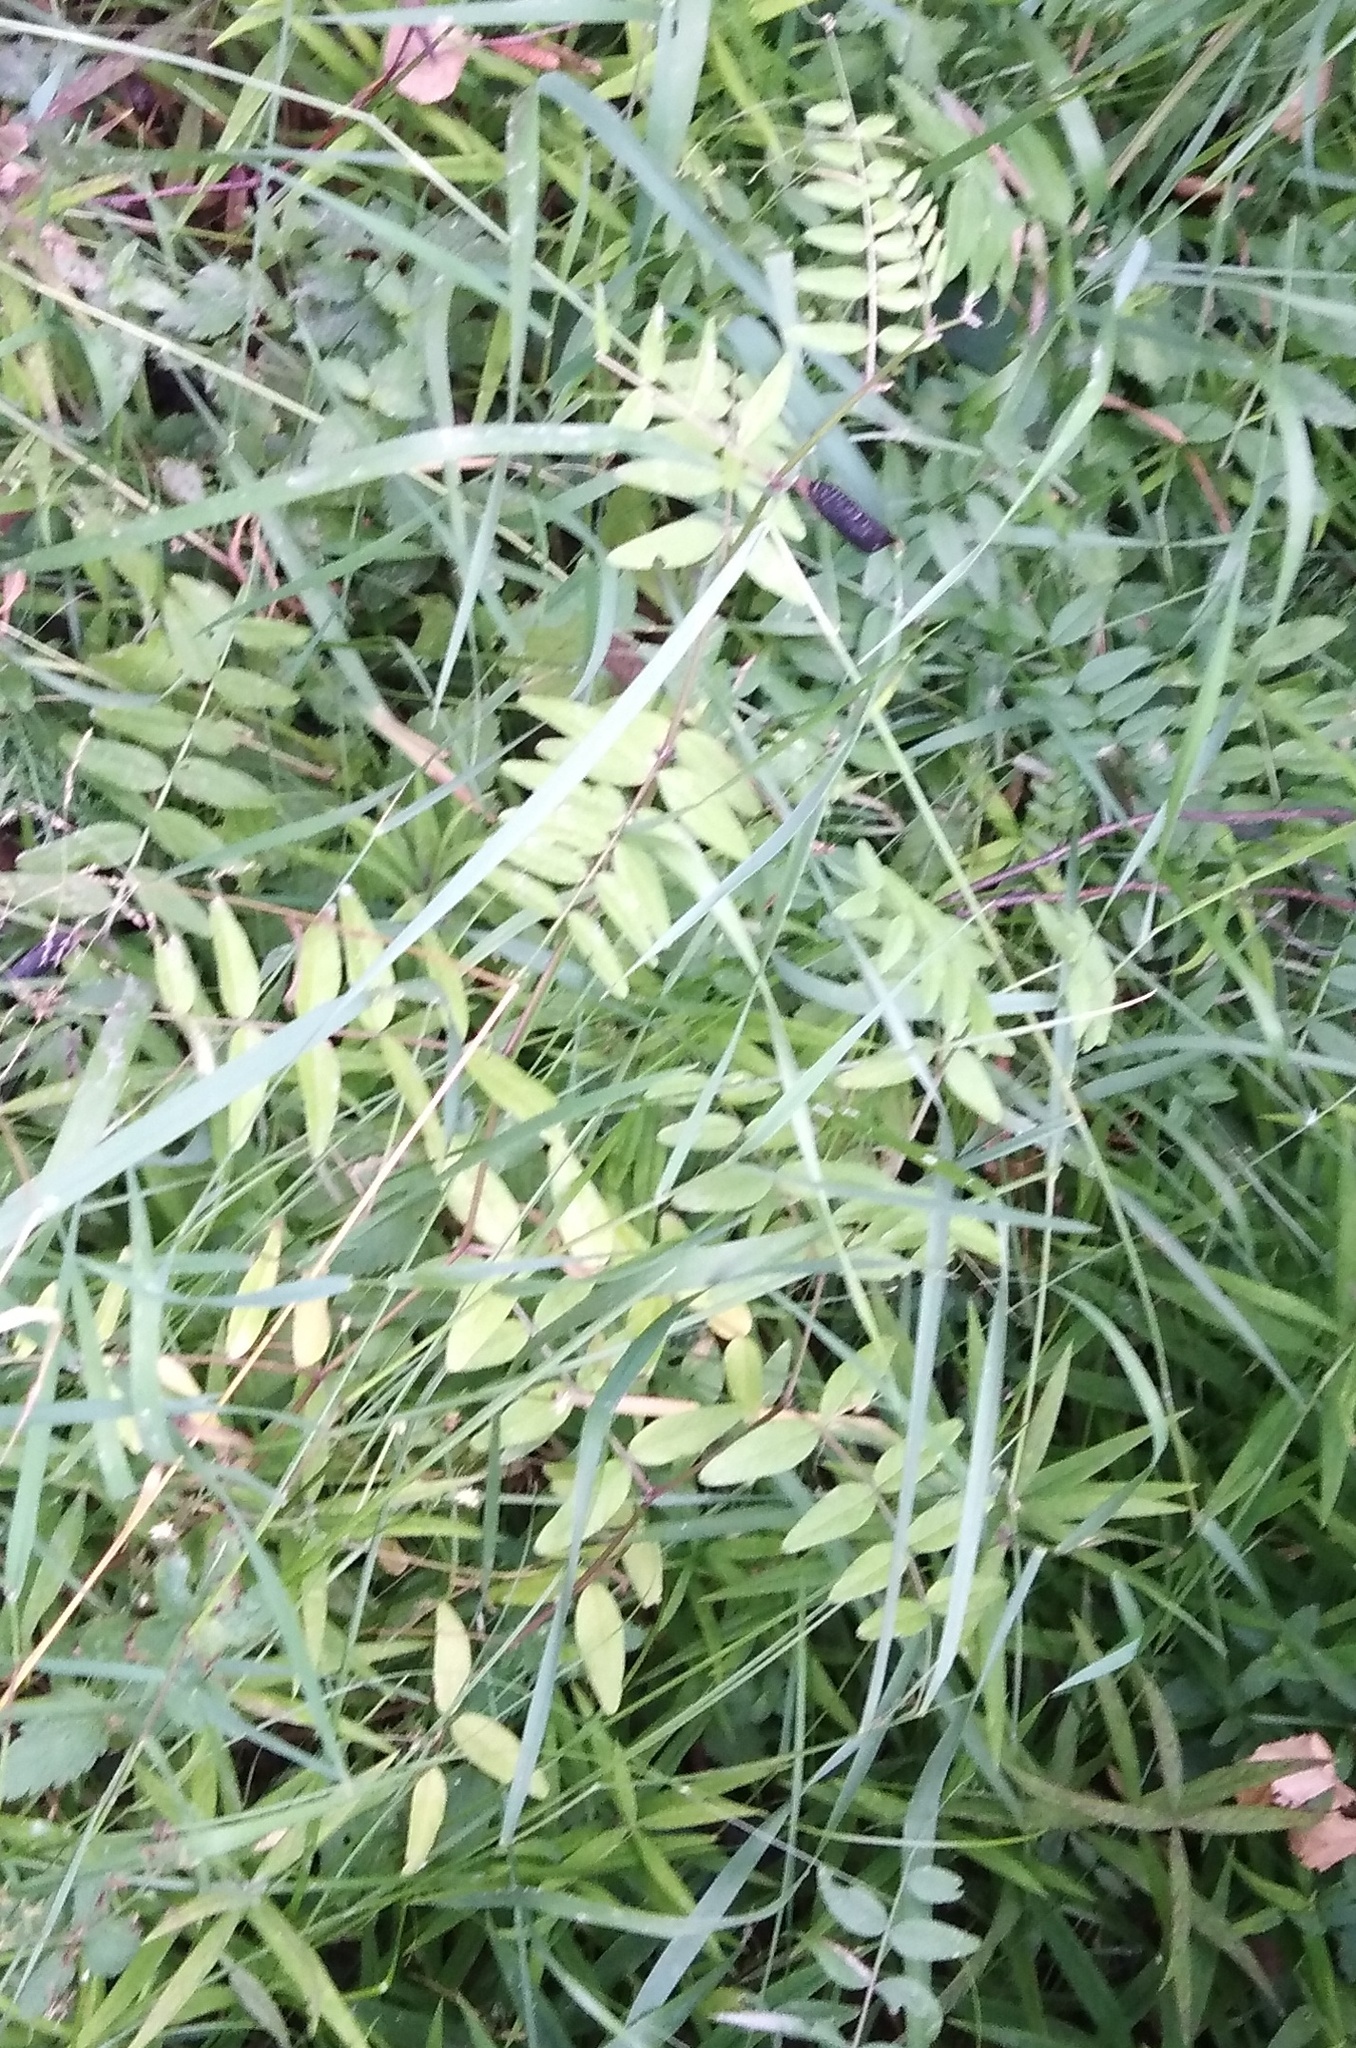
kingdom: Plantae
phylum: Tracheophyta
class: Magnoliopsida
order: Fabales
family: Fabaceae
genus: Vicia
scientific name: Vicia sepium
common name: Bush vetch
